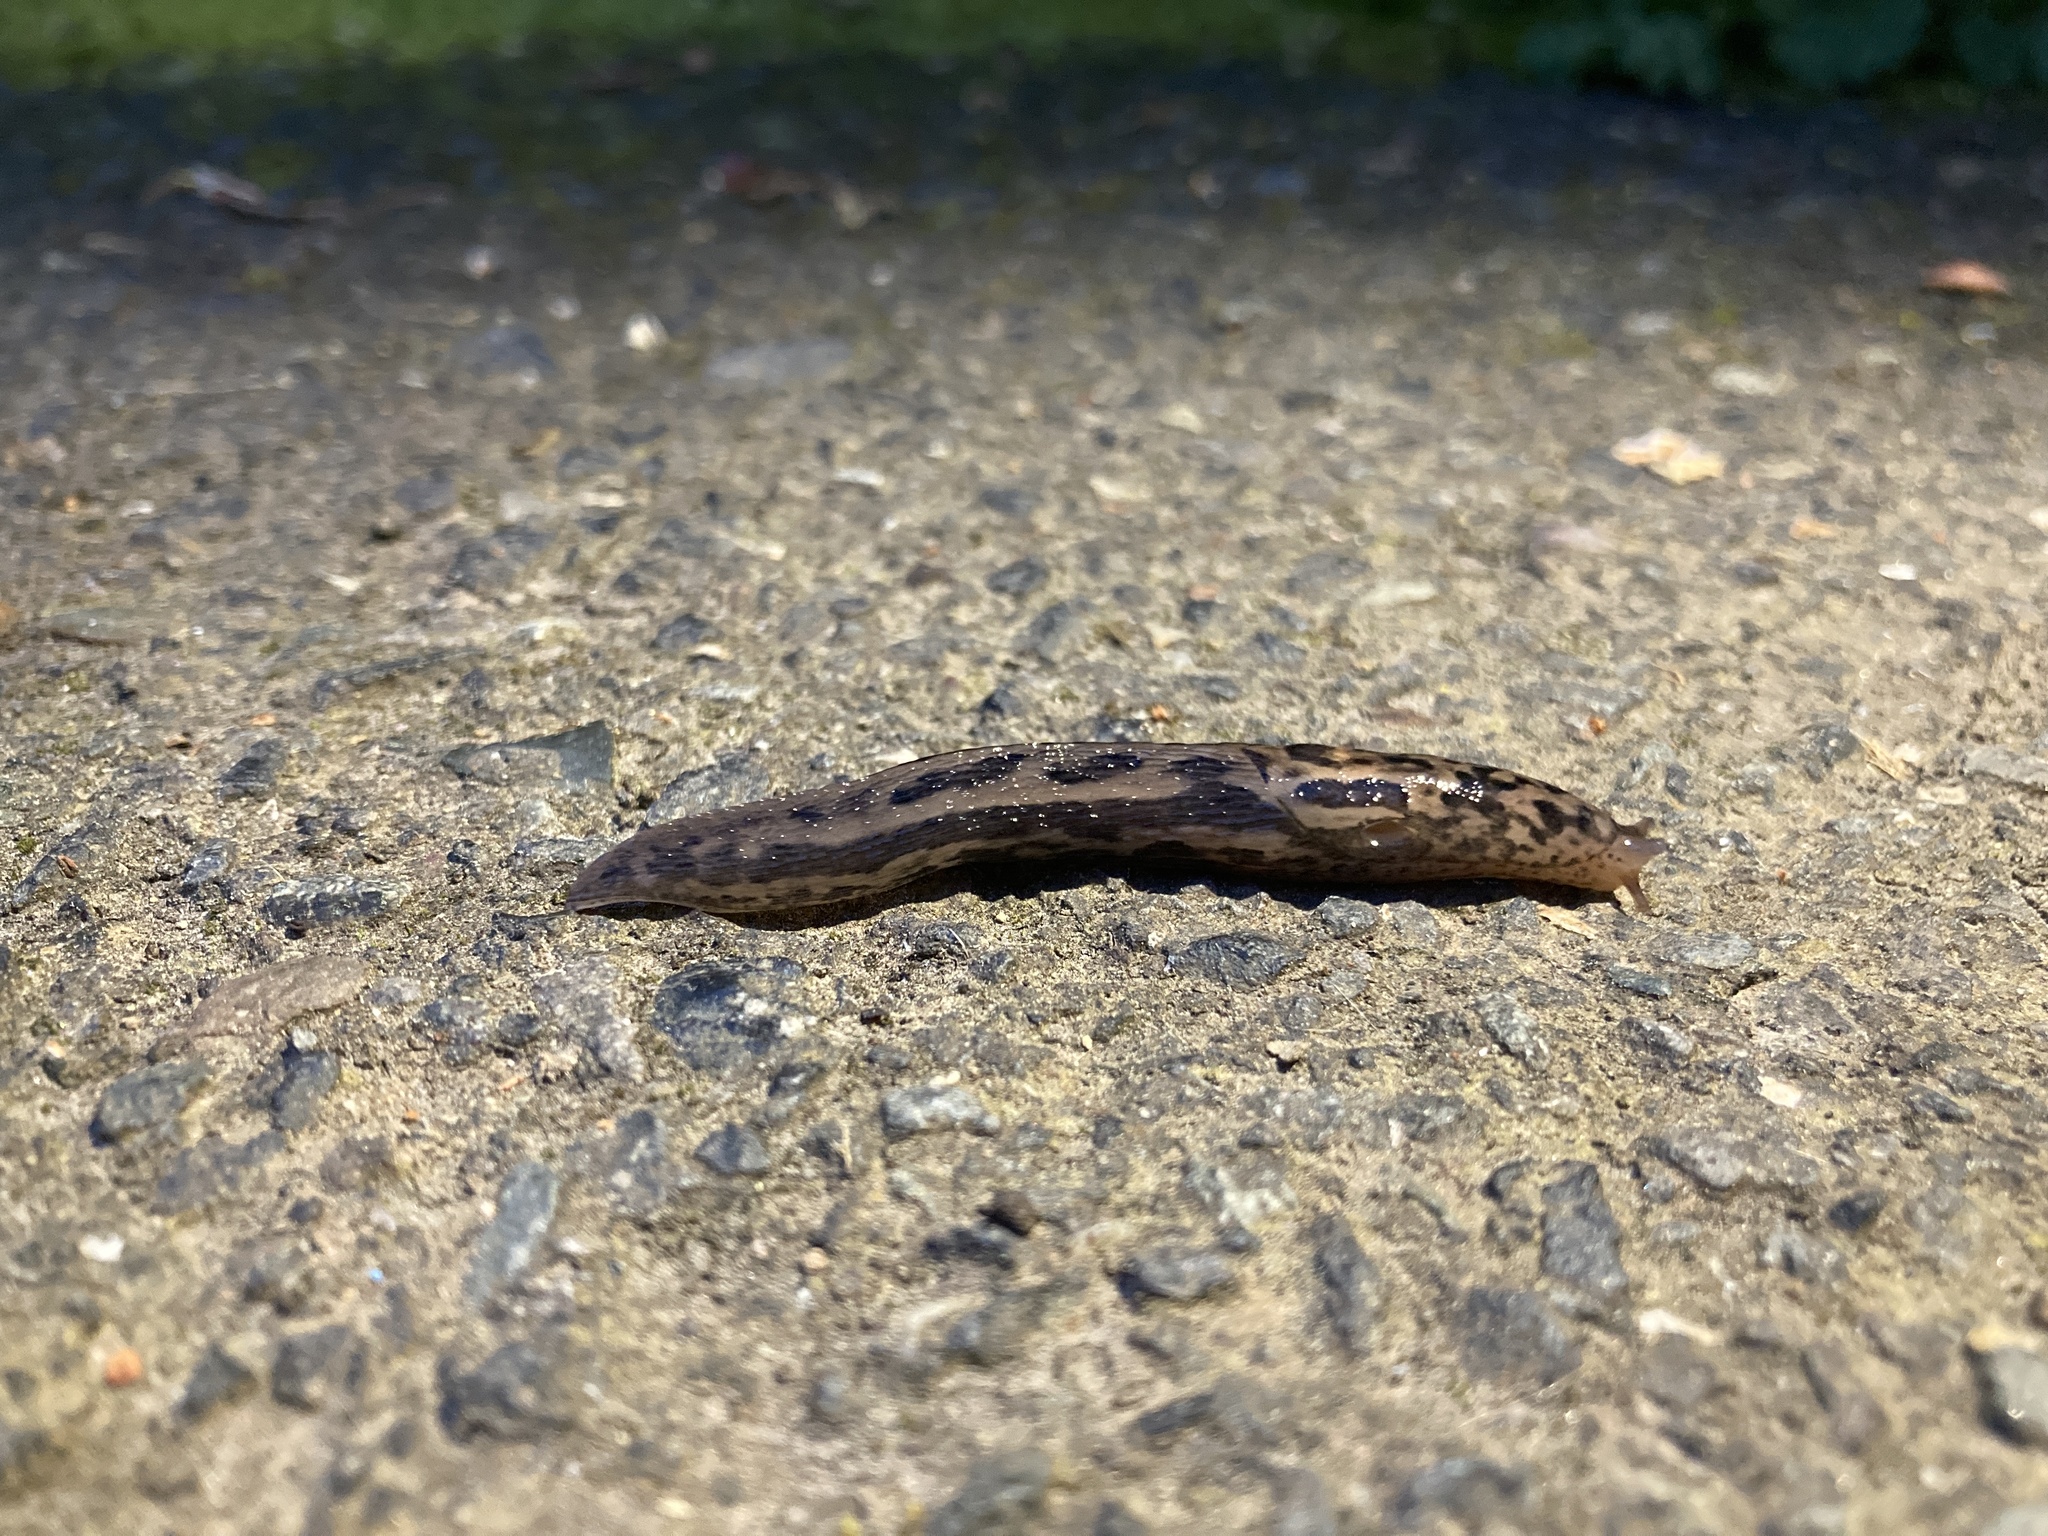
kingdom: Animalia
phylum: Mollusca
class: Gastropoda
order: Stylommatophora
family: Limacidae
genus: Limax
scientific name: Limax maximus
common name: Great grey slug
